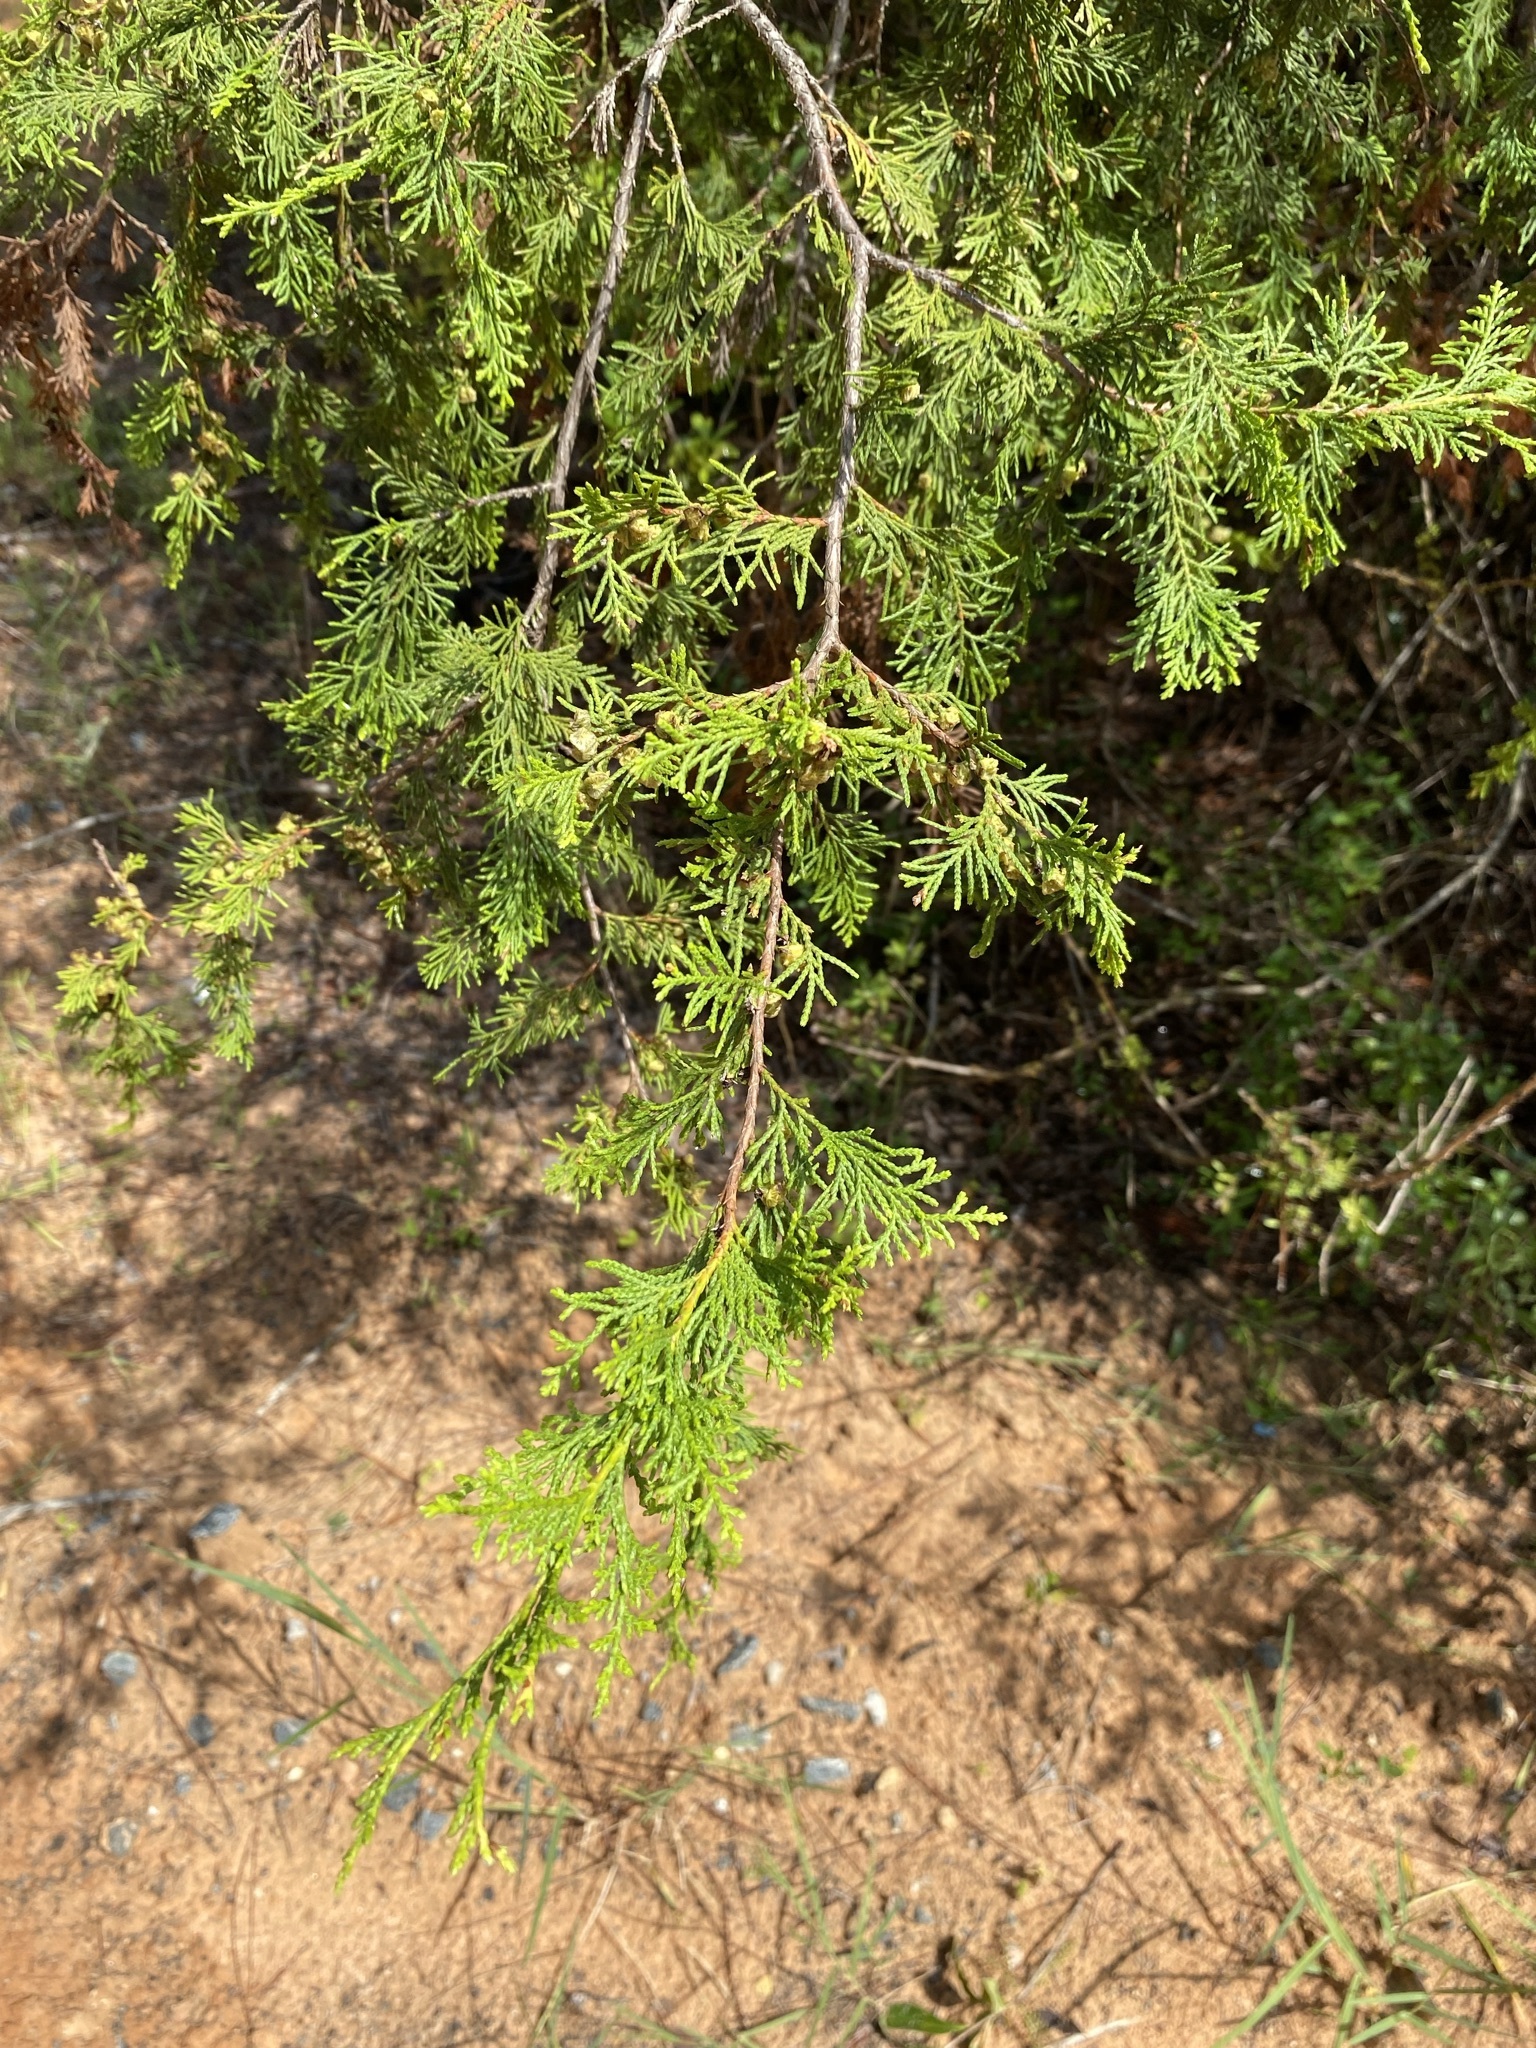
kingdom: Plantae
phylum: Tracheophyta
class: Pinopsida
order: Pinales
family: Cupressaceae
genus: Chamaecyparis
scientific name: Chamaecyparis thyoides
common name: Atlantic white cedar
